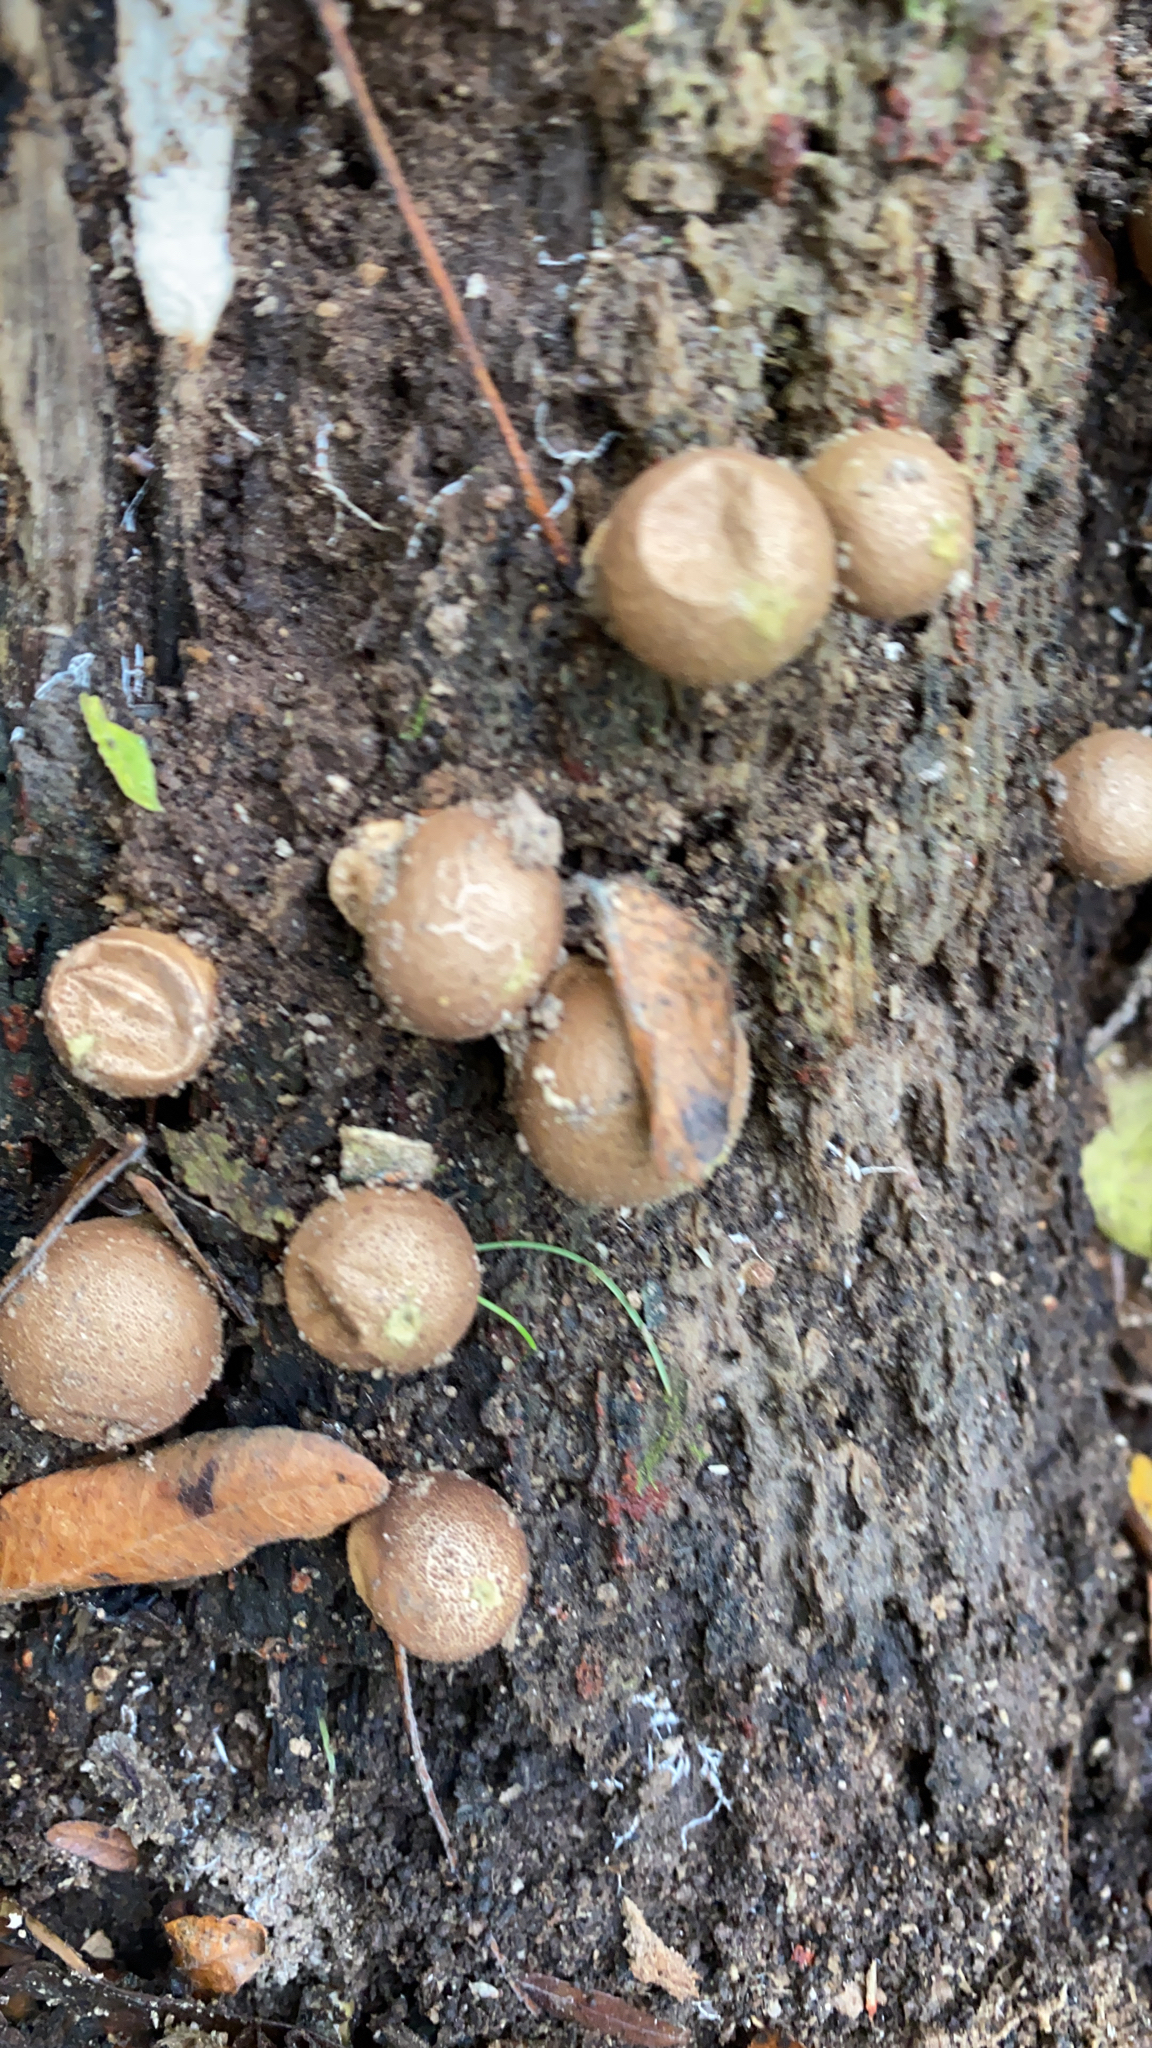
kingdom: Fungi
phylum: Basidiomycota
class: Agaricomycetes
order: Agaricales
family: Lycoperdaceae
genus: Apioperdon
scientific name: Apioperdon pyriforme
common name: Pear-shaped puffball
